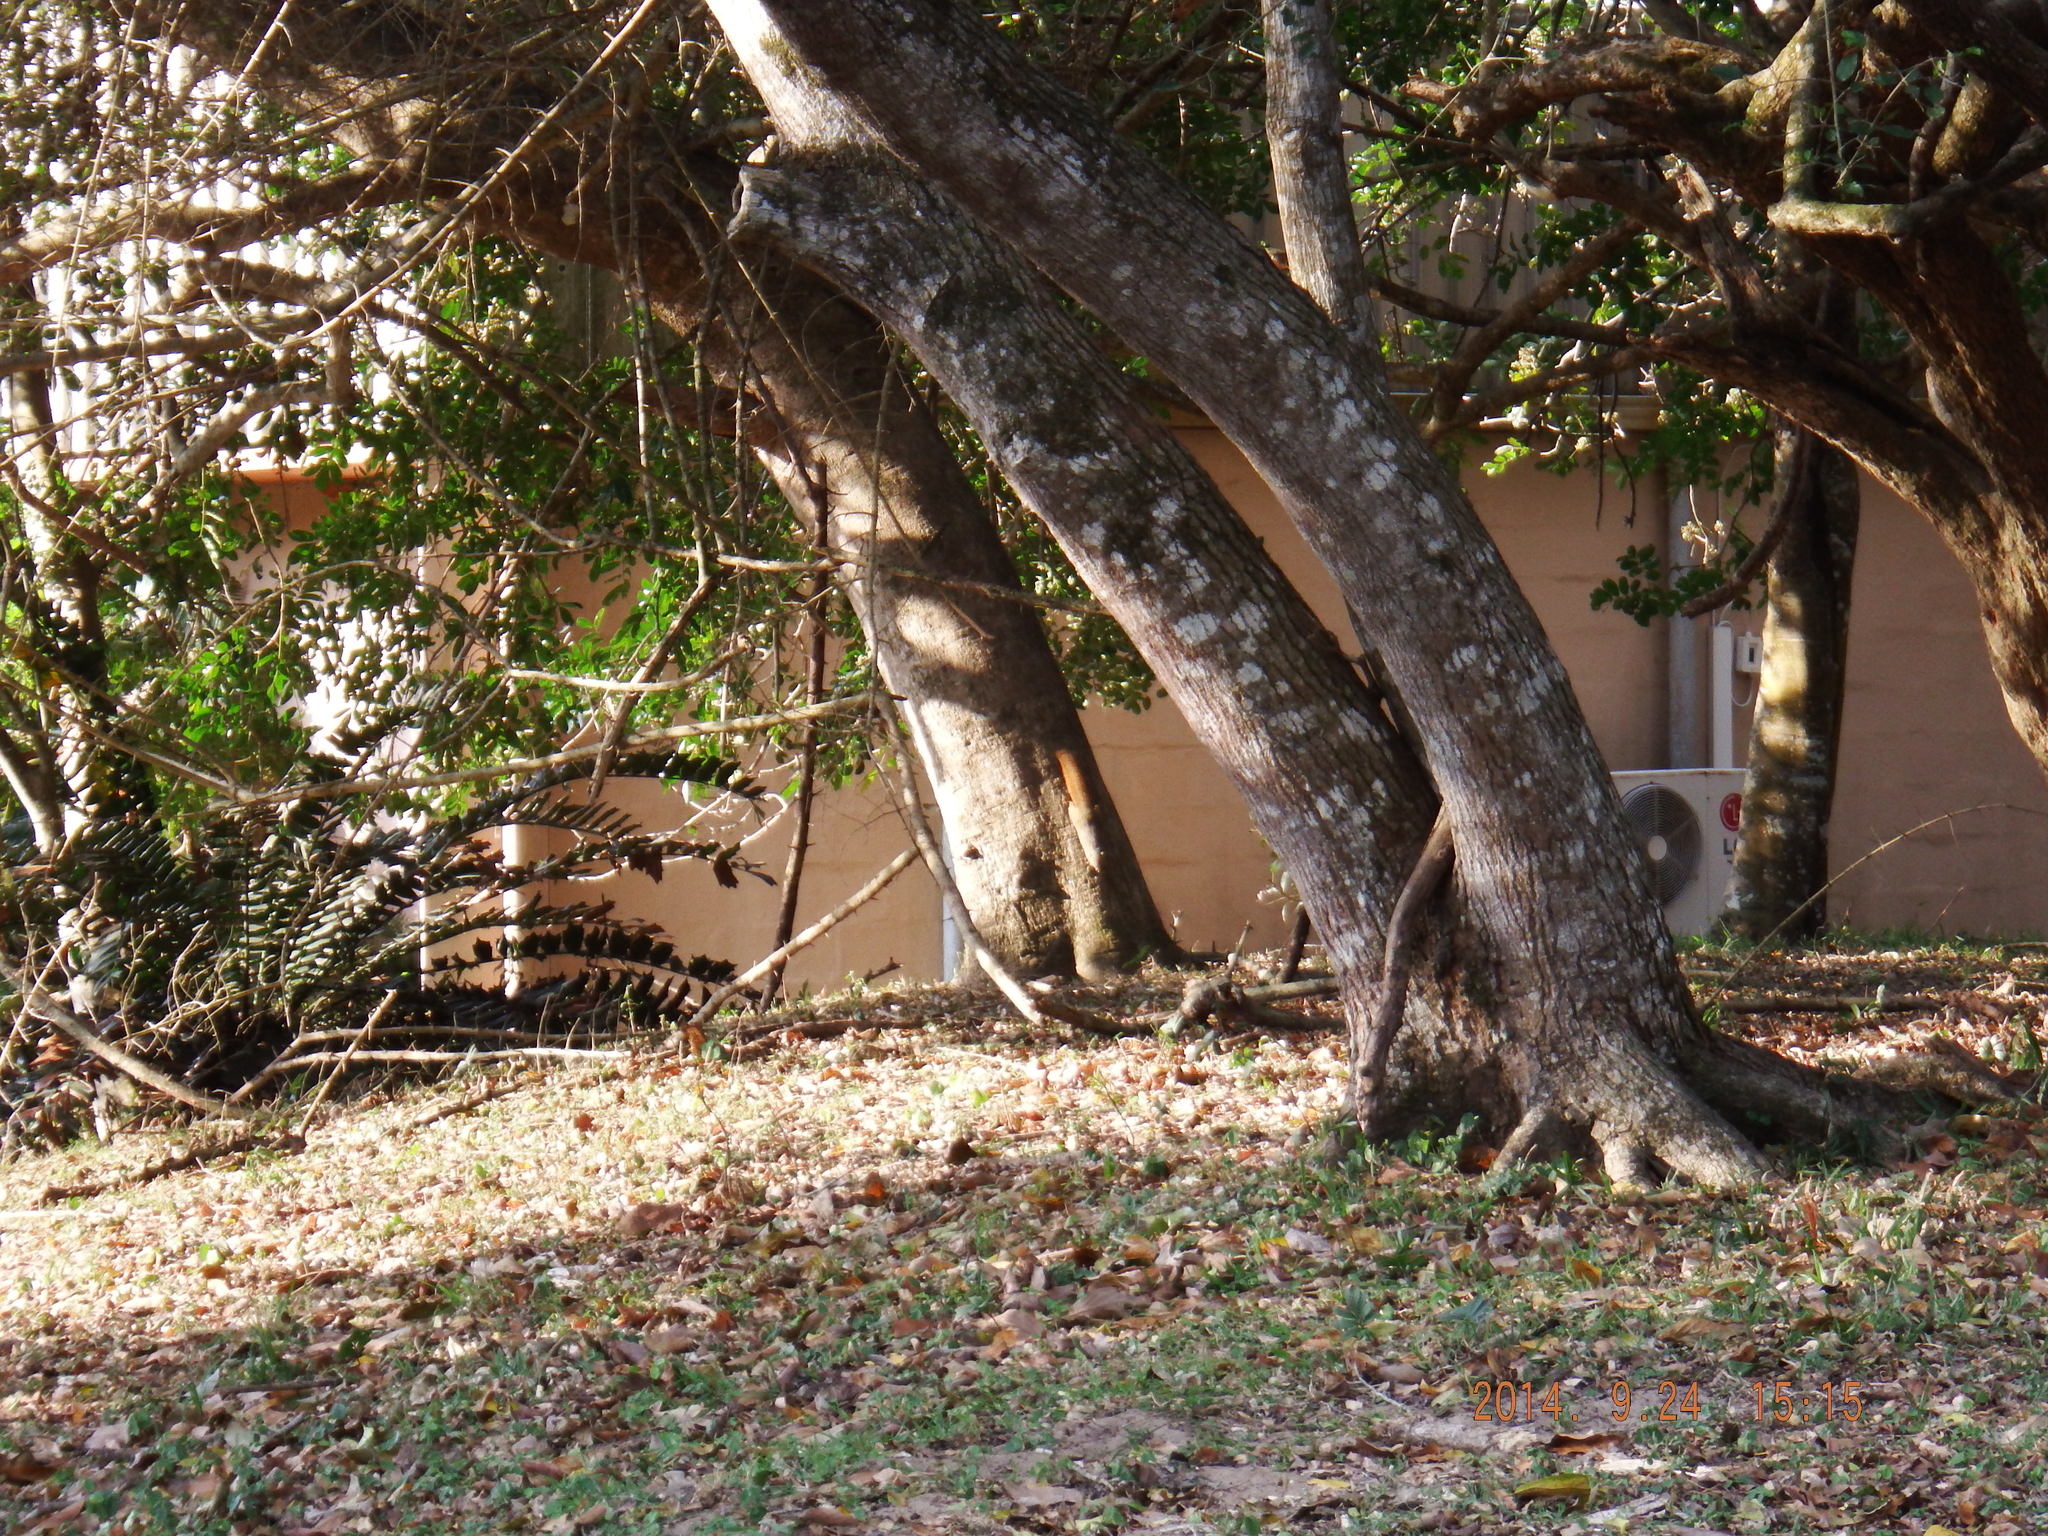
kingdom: Animalia
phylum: Chordata
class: Mammalia
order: Rodentia
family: Sciuridae
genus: Paraxerus
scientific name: Paraxerus palliatus
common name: Red bush squirrel
